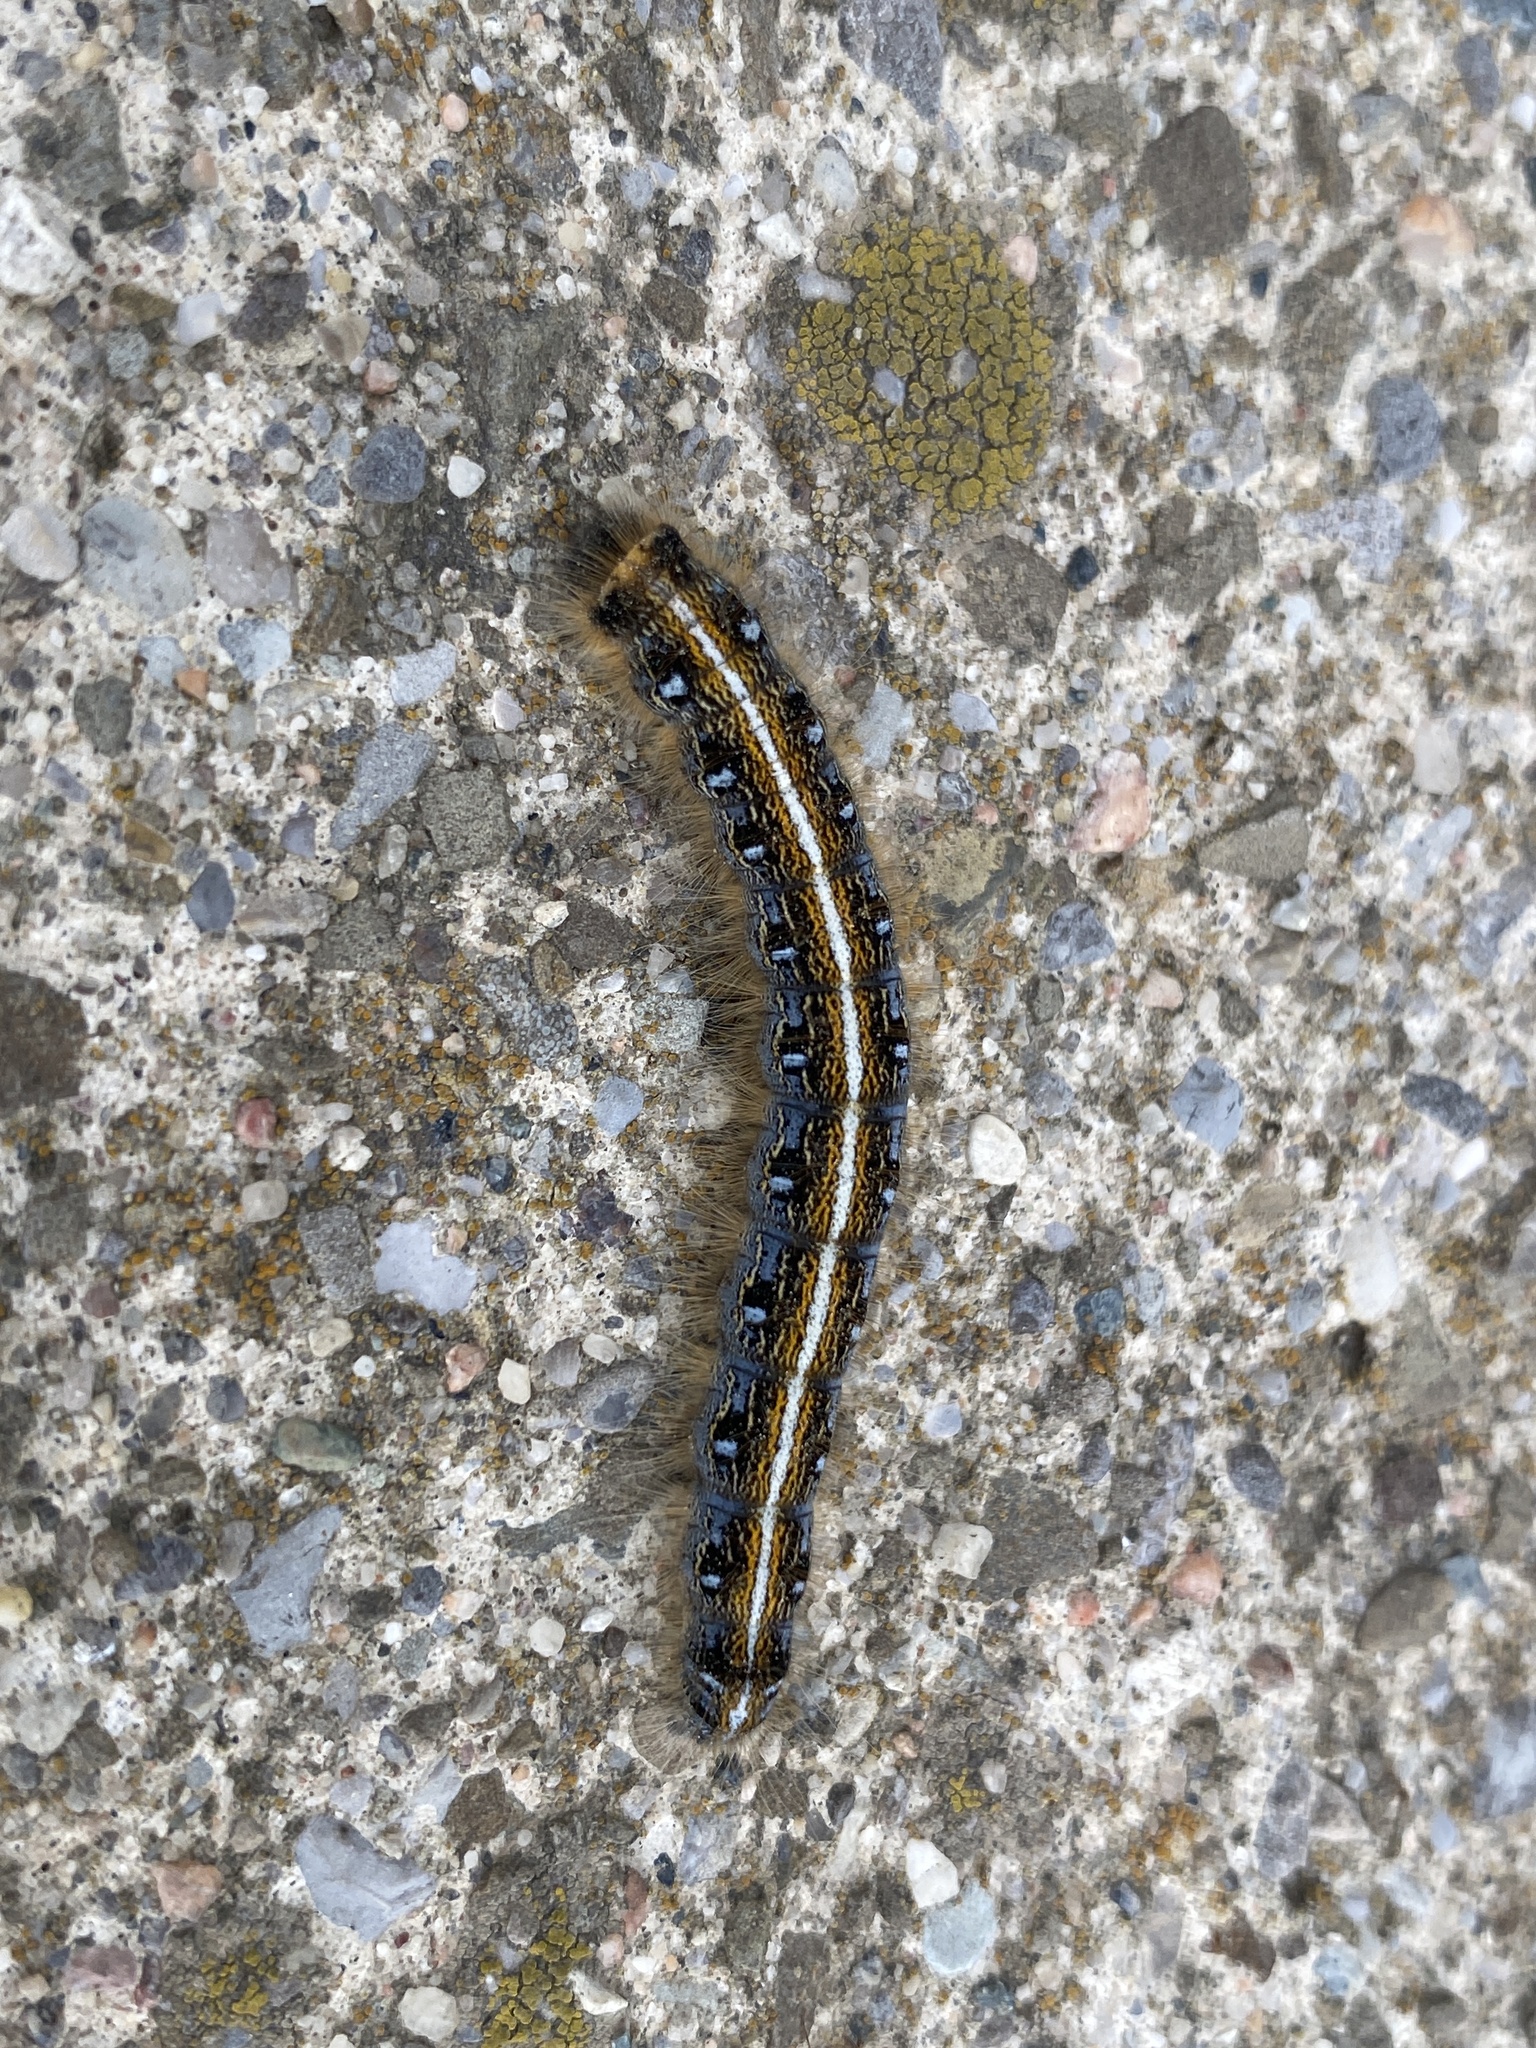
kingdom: Animalia
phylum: Arthropoda
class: Insecta
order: Lepidoptera
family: Lasiocampidae
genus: Malacosoma
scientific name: Malacosoma americana
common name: Eastern tent caterpillar moth
